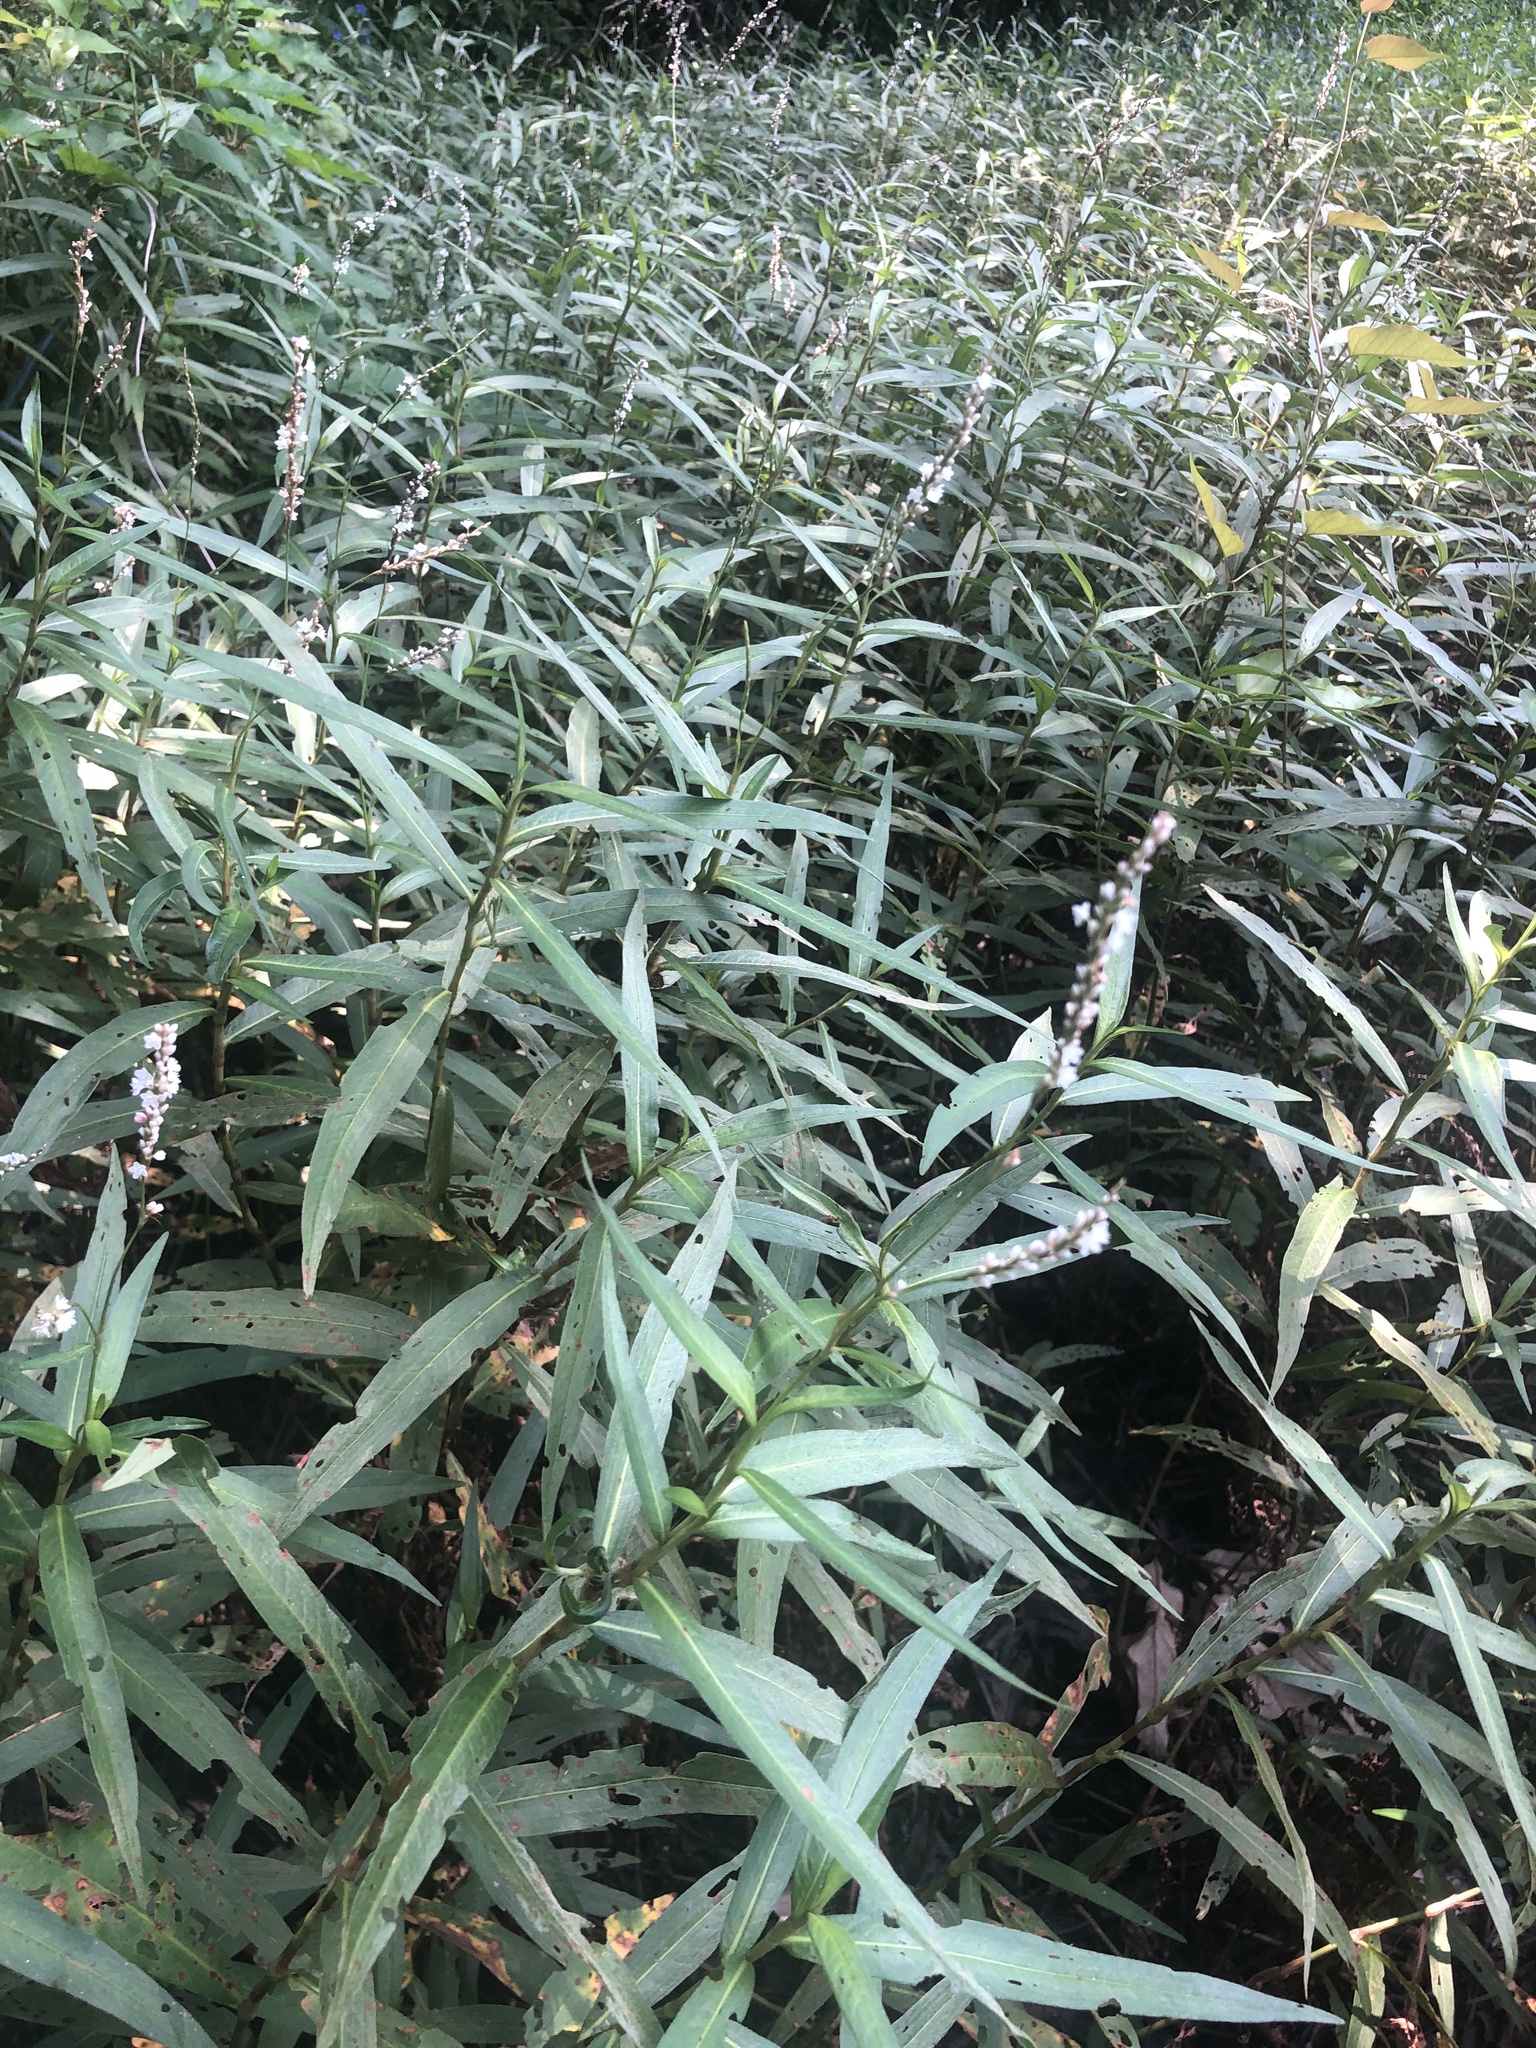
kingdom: Plantae
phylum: Tracheophyta
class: Magnoliopsida
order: Caryophyllales
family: Polygonaceae
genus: Persicaria
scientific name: Persicaria hydropiperoides
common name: Swamp smartweed
